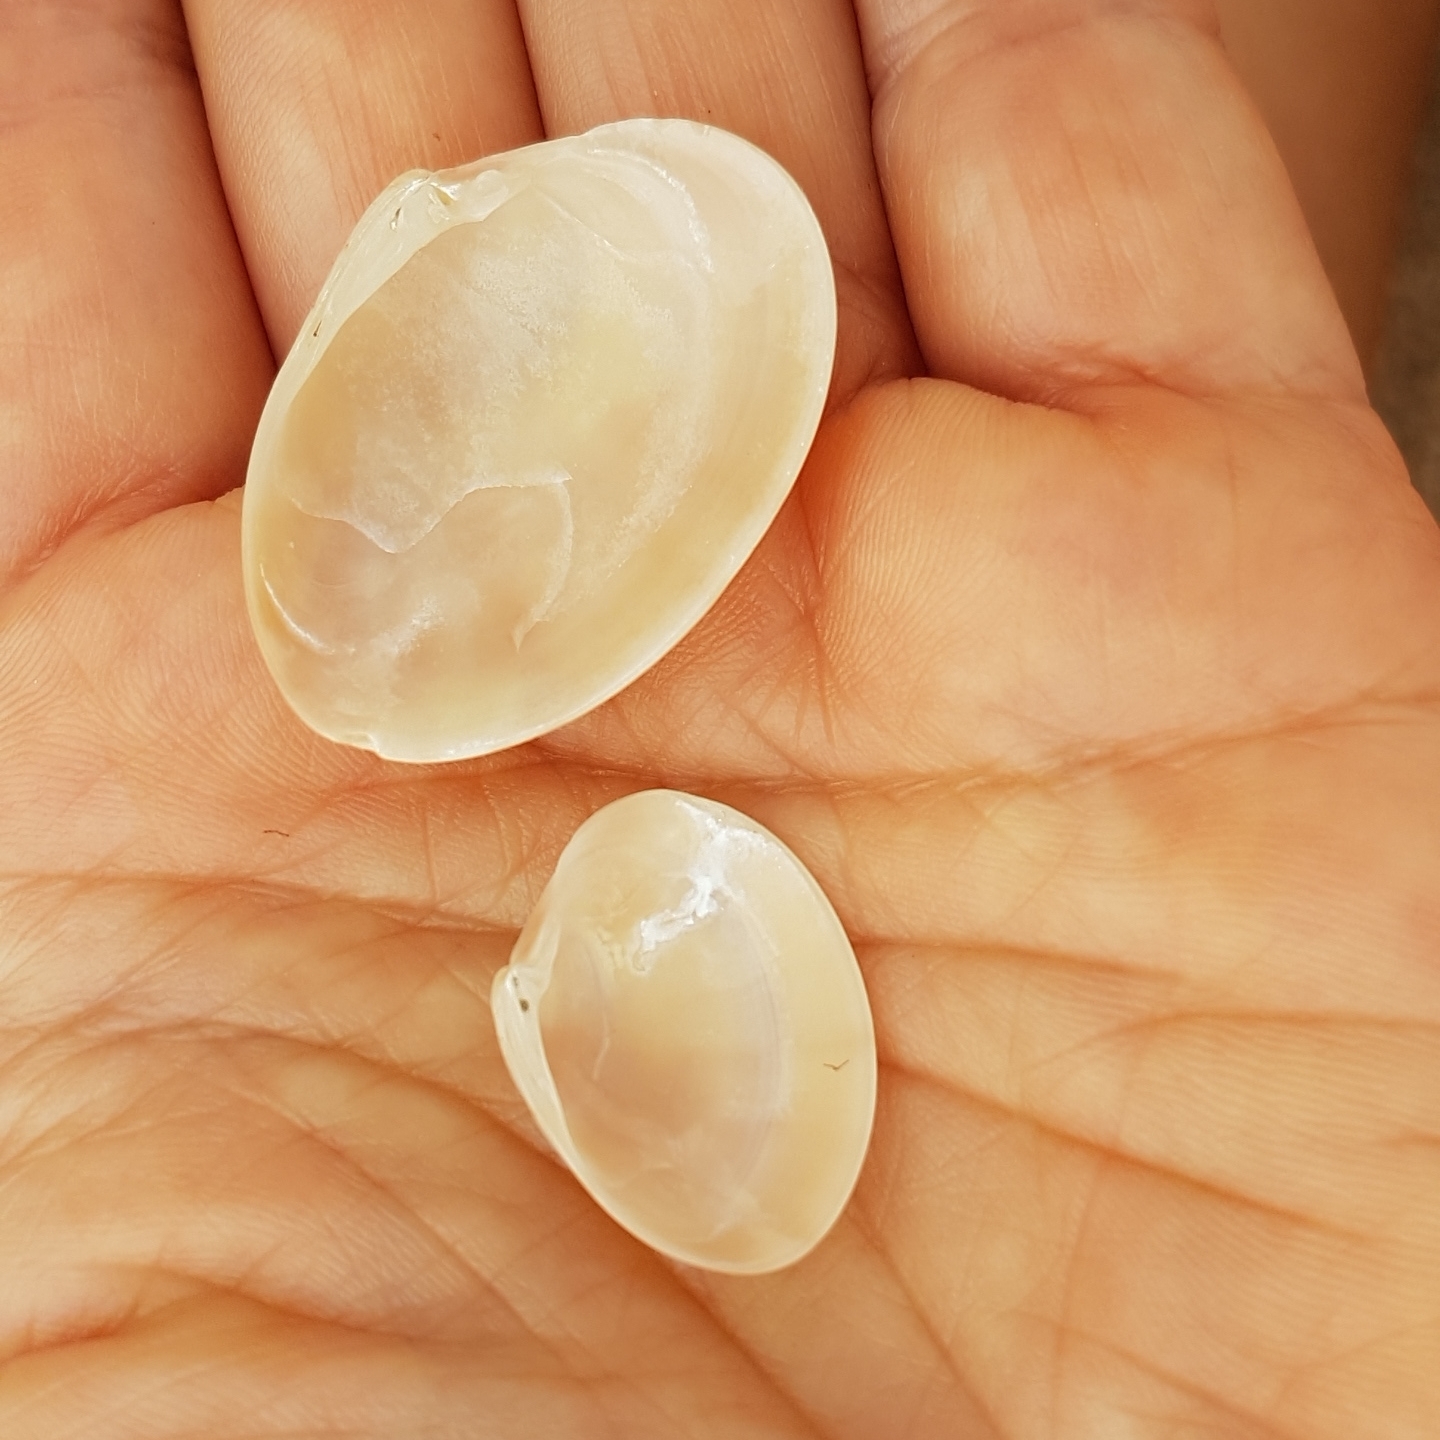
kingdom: Animalia
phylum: Mollusca
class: Bivalvia
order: Venerida
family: Veneridae
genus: Callista
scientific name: Callista chione
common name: Brown venus
